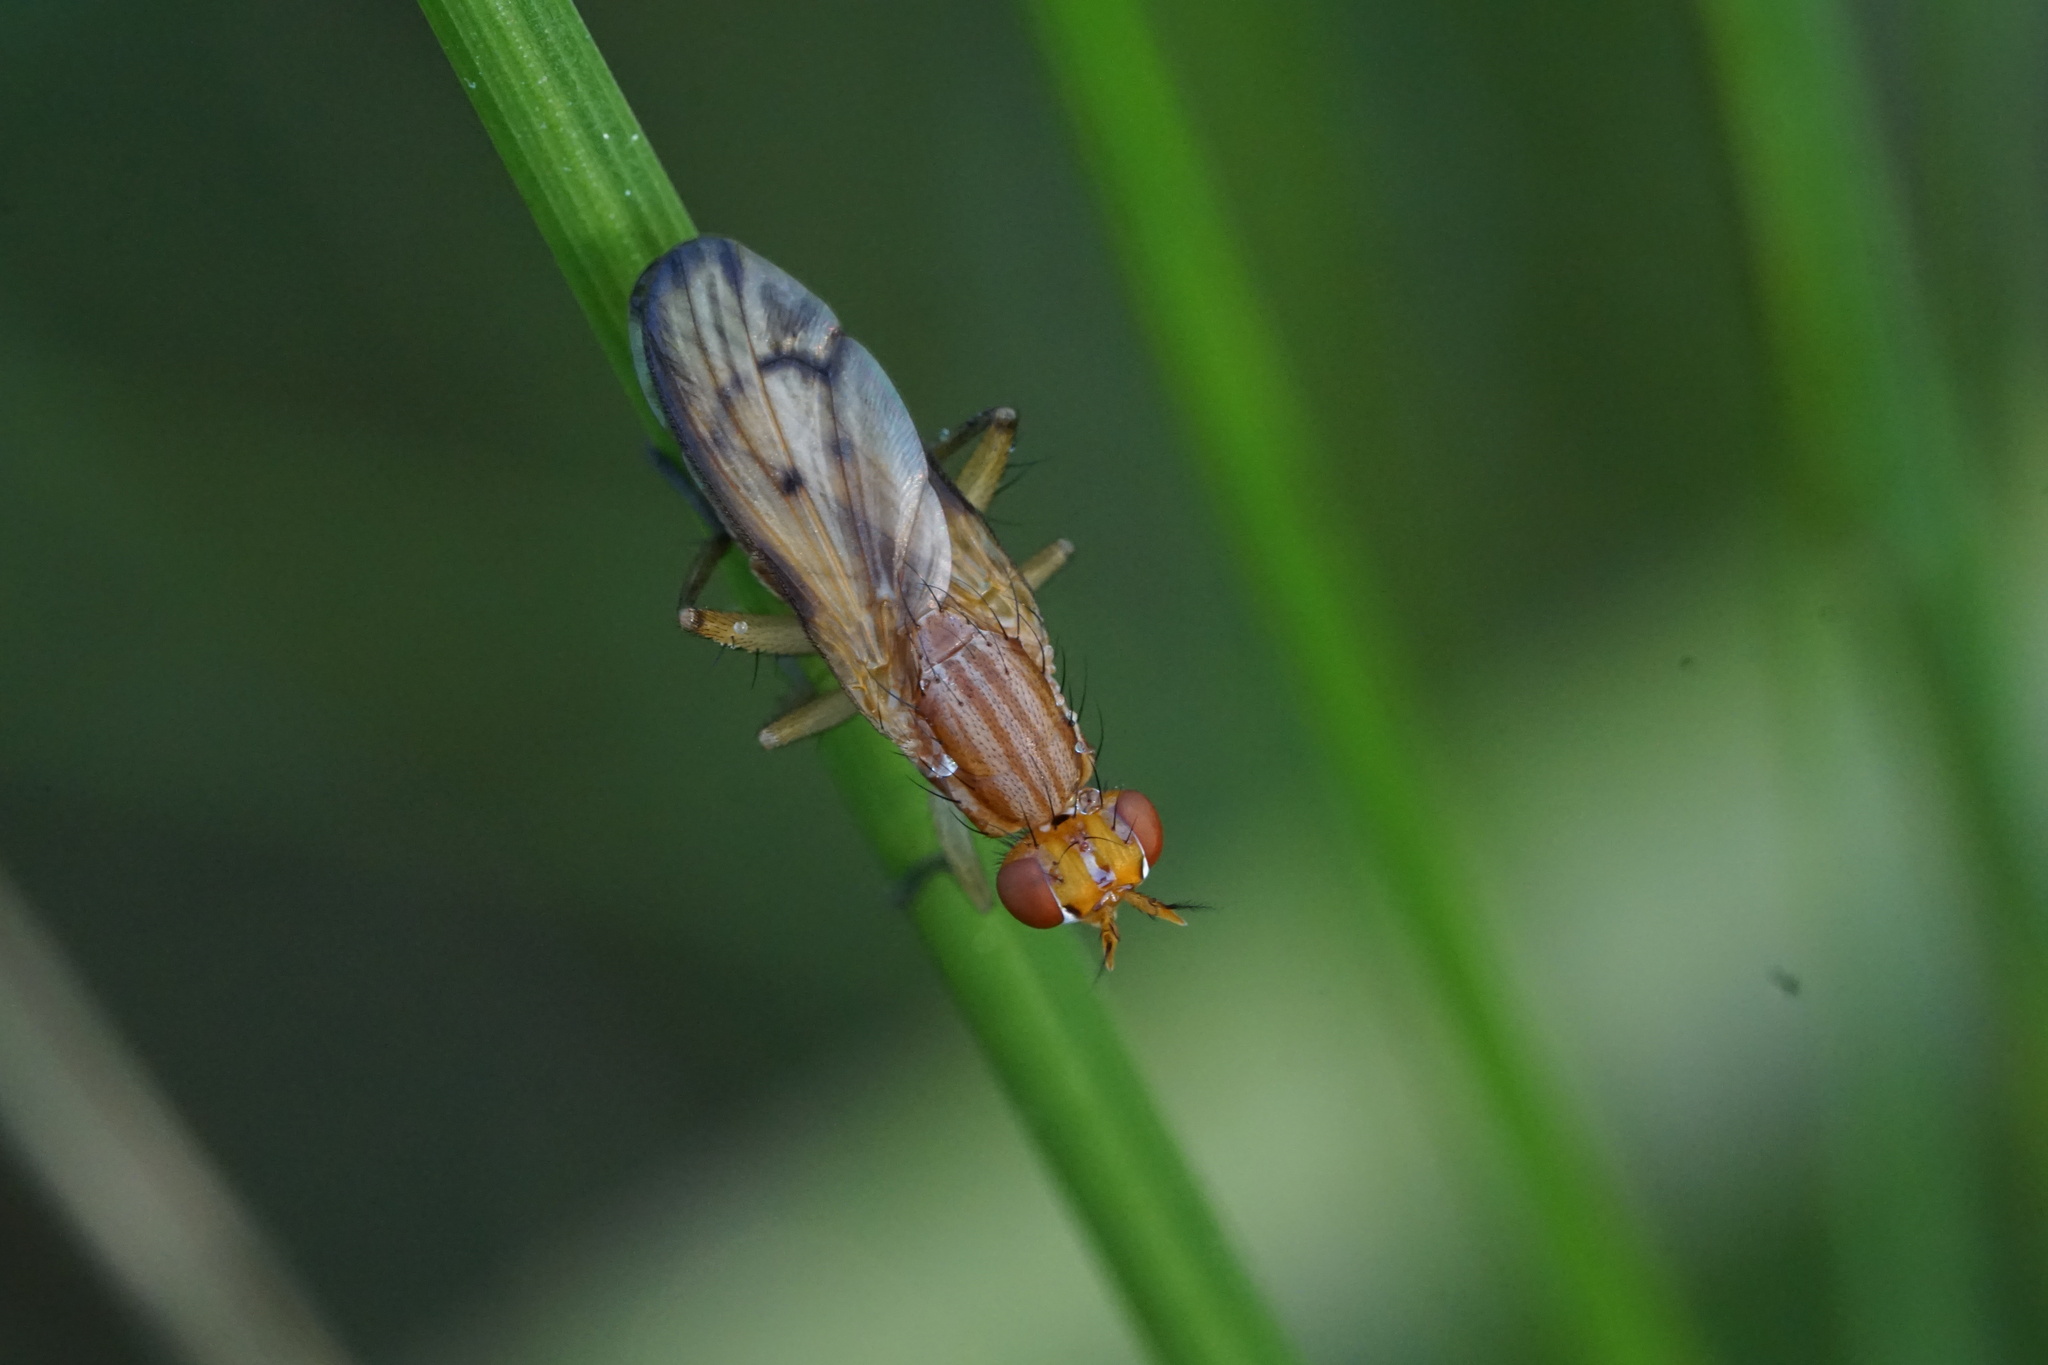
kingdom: Animalia
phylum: Arthropoda
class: Insecta
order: Diptera
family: Sciomyzidae
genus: Tetanocera
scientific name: Tetanocera plebeja
